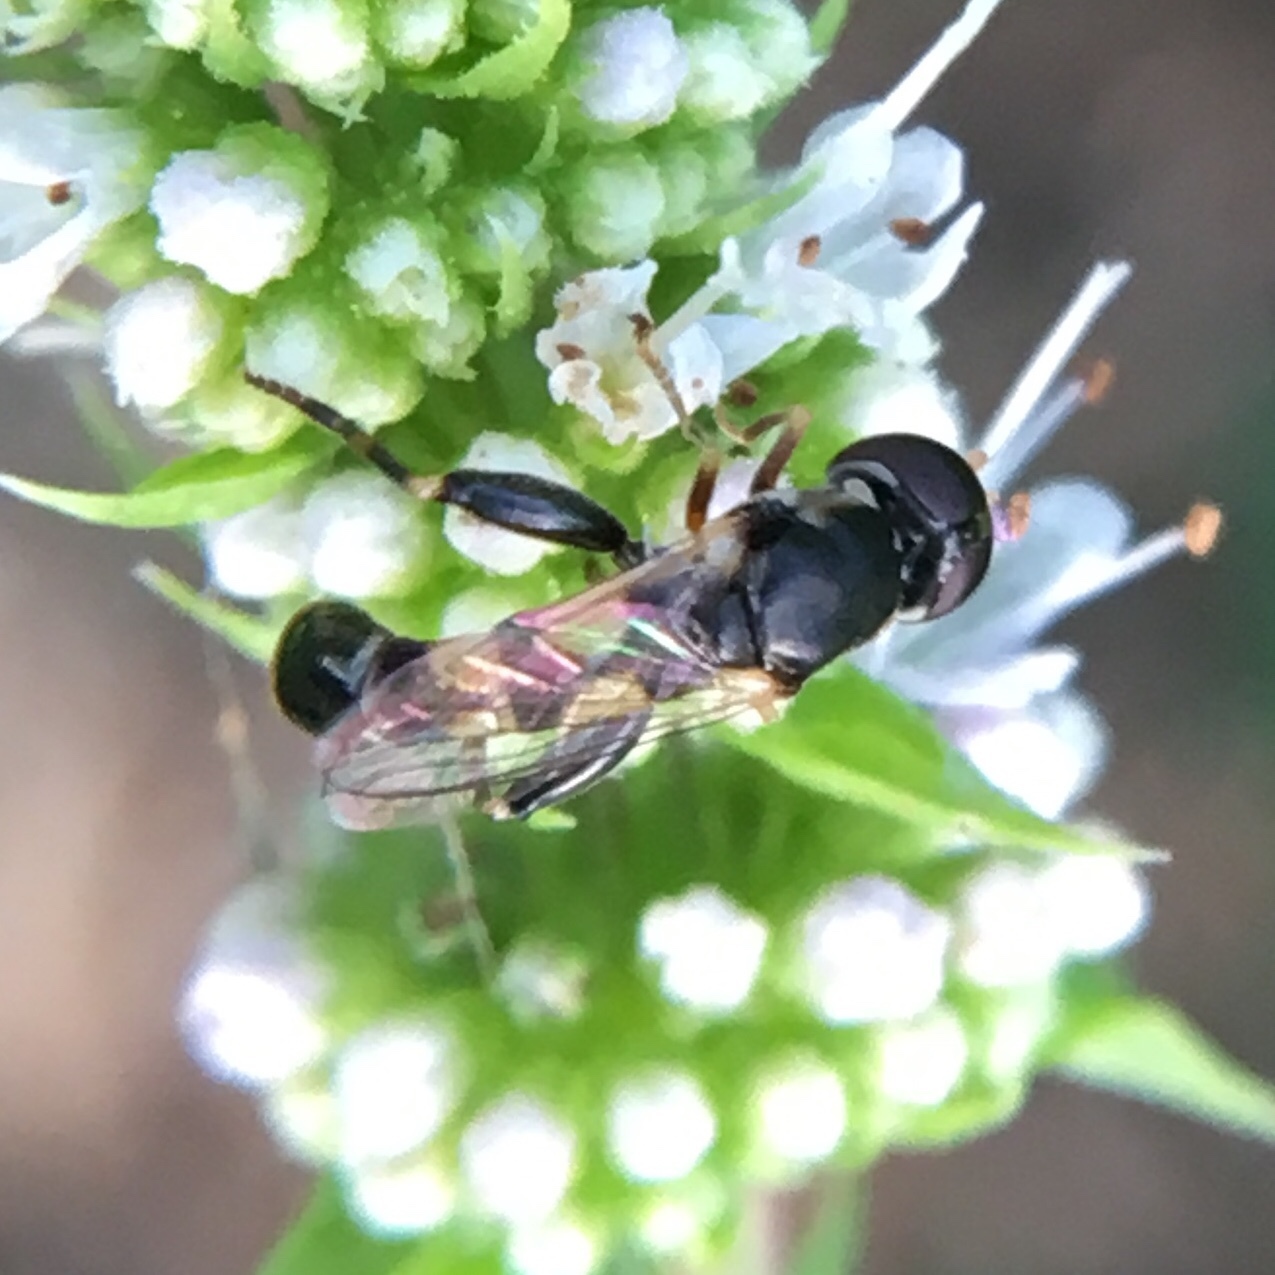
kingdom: Animalia
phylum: Arthropoda
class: Insecta
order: Diptera
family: Syrphidae
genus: Syritta
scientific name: Syritta pipiens
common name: Hover fly
